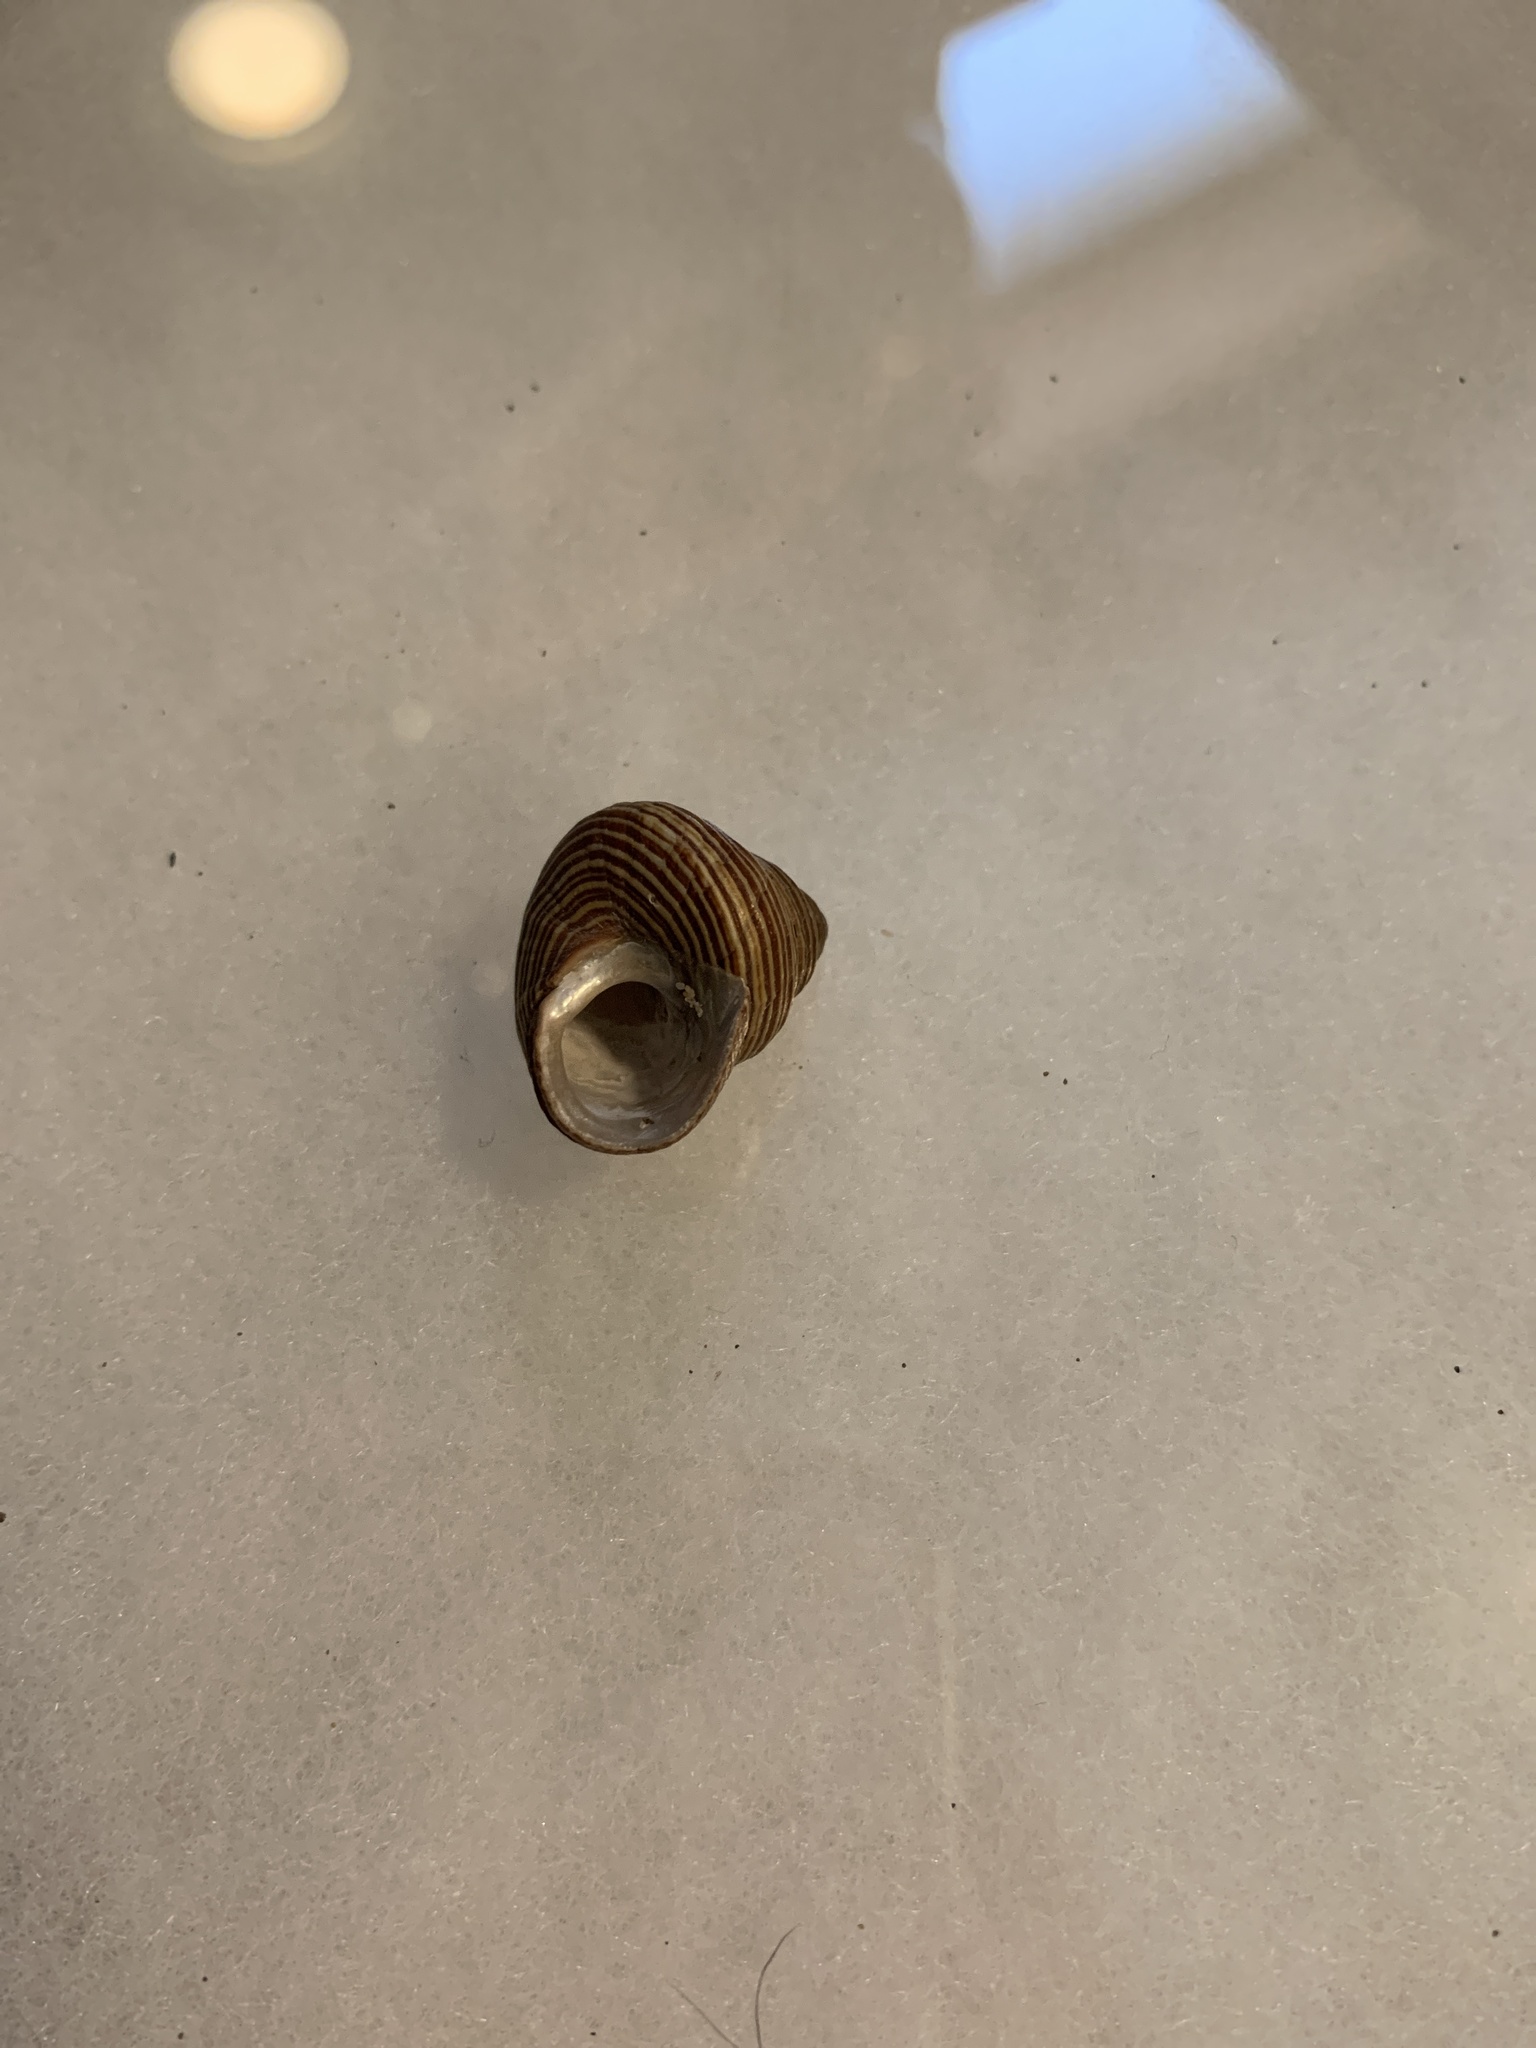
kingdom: Animalia
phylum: Mollusca
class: Gastropoda
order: Trochida
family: Calliostomatidae
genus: Calliostoma
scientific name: Calliostoma ligatum
